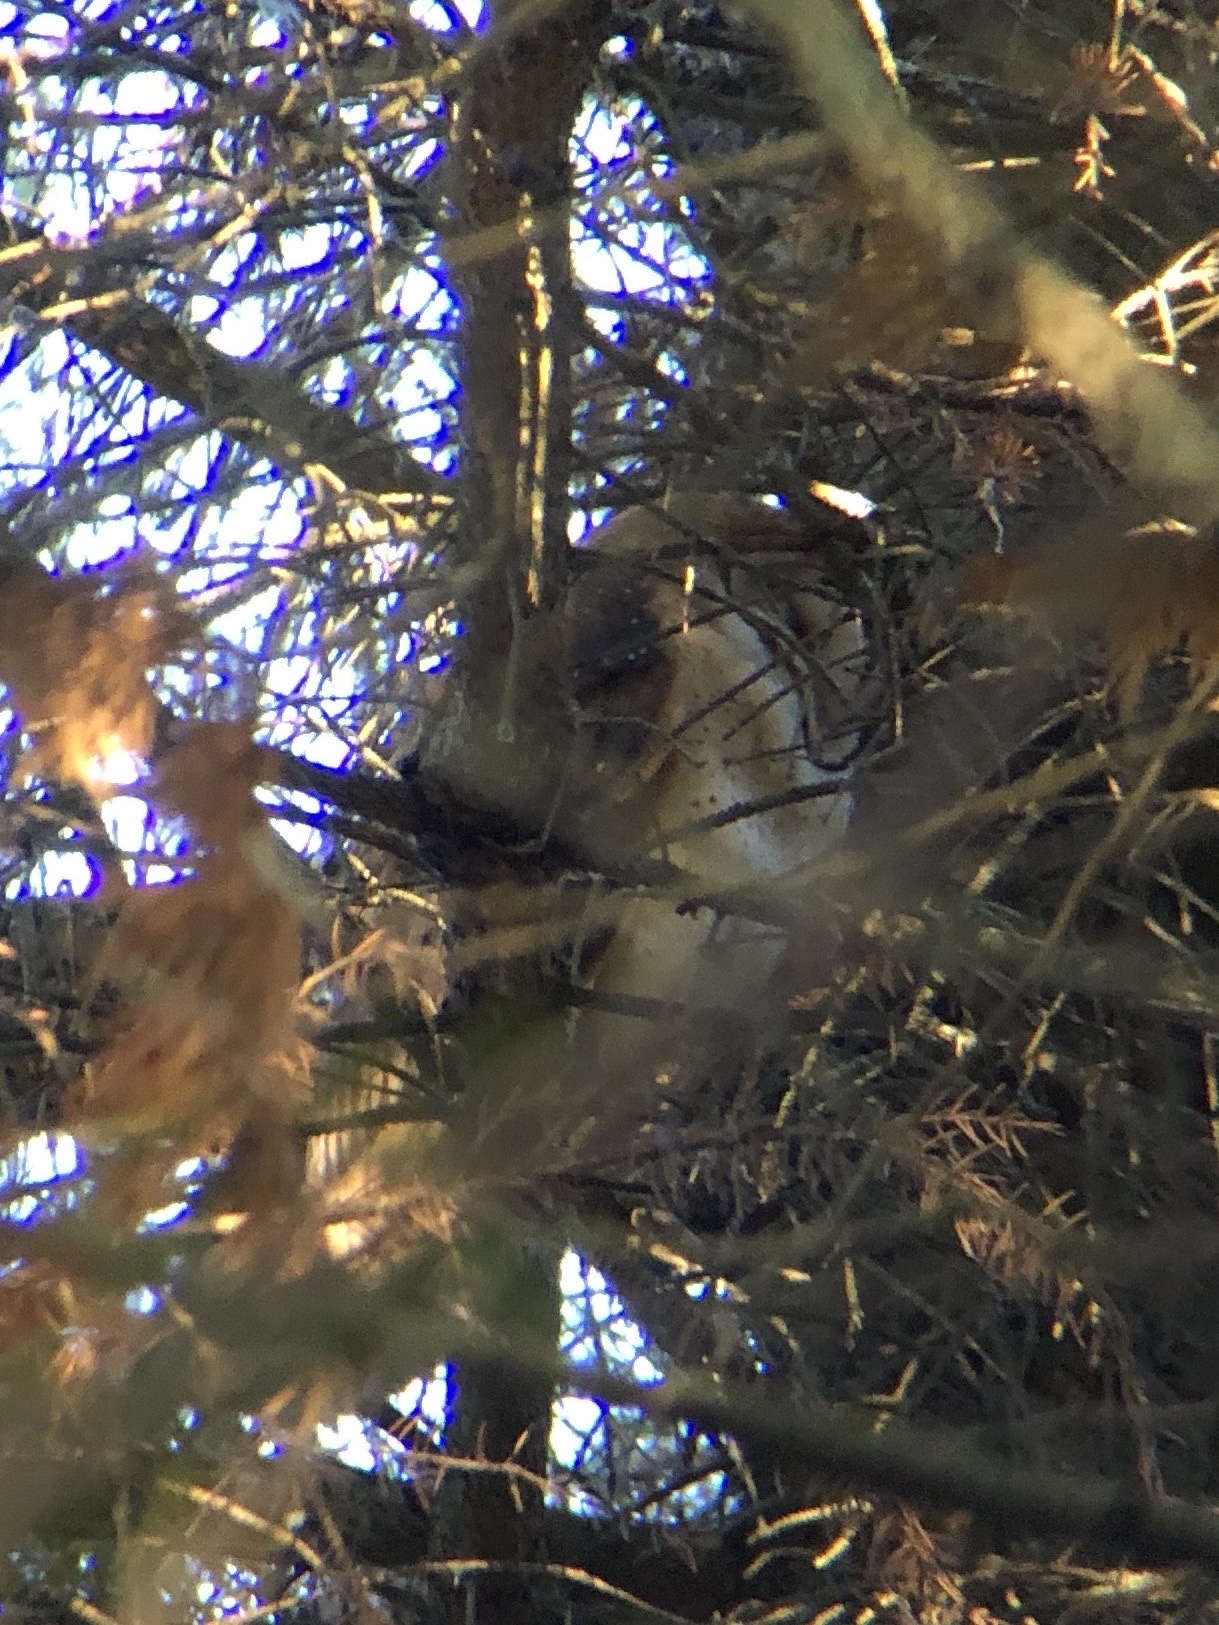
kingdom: Animalia
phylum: Chordata
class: Aves
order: Strigiformes
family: Tytonidae
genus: Tyto
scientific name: Tyto alba
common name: Barn owl
